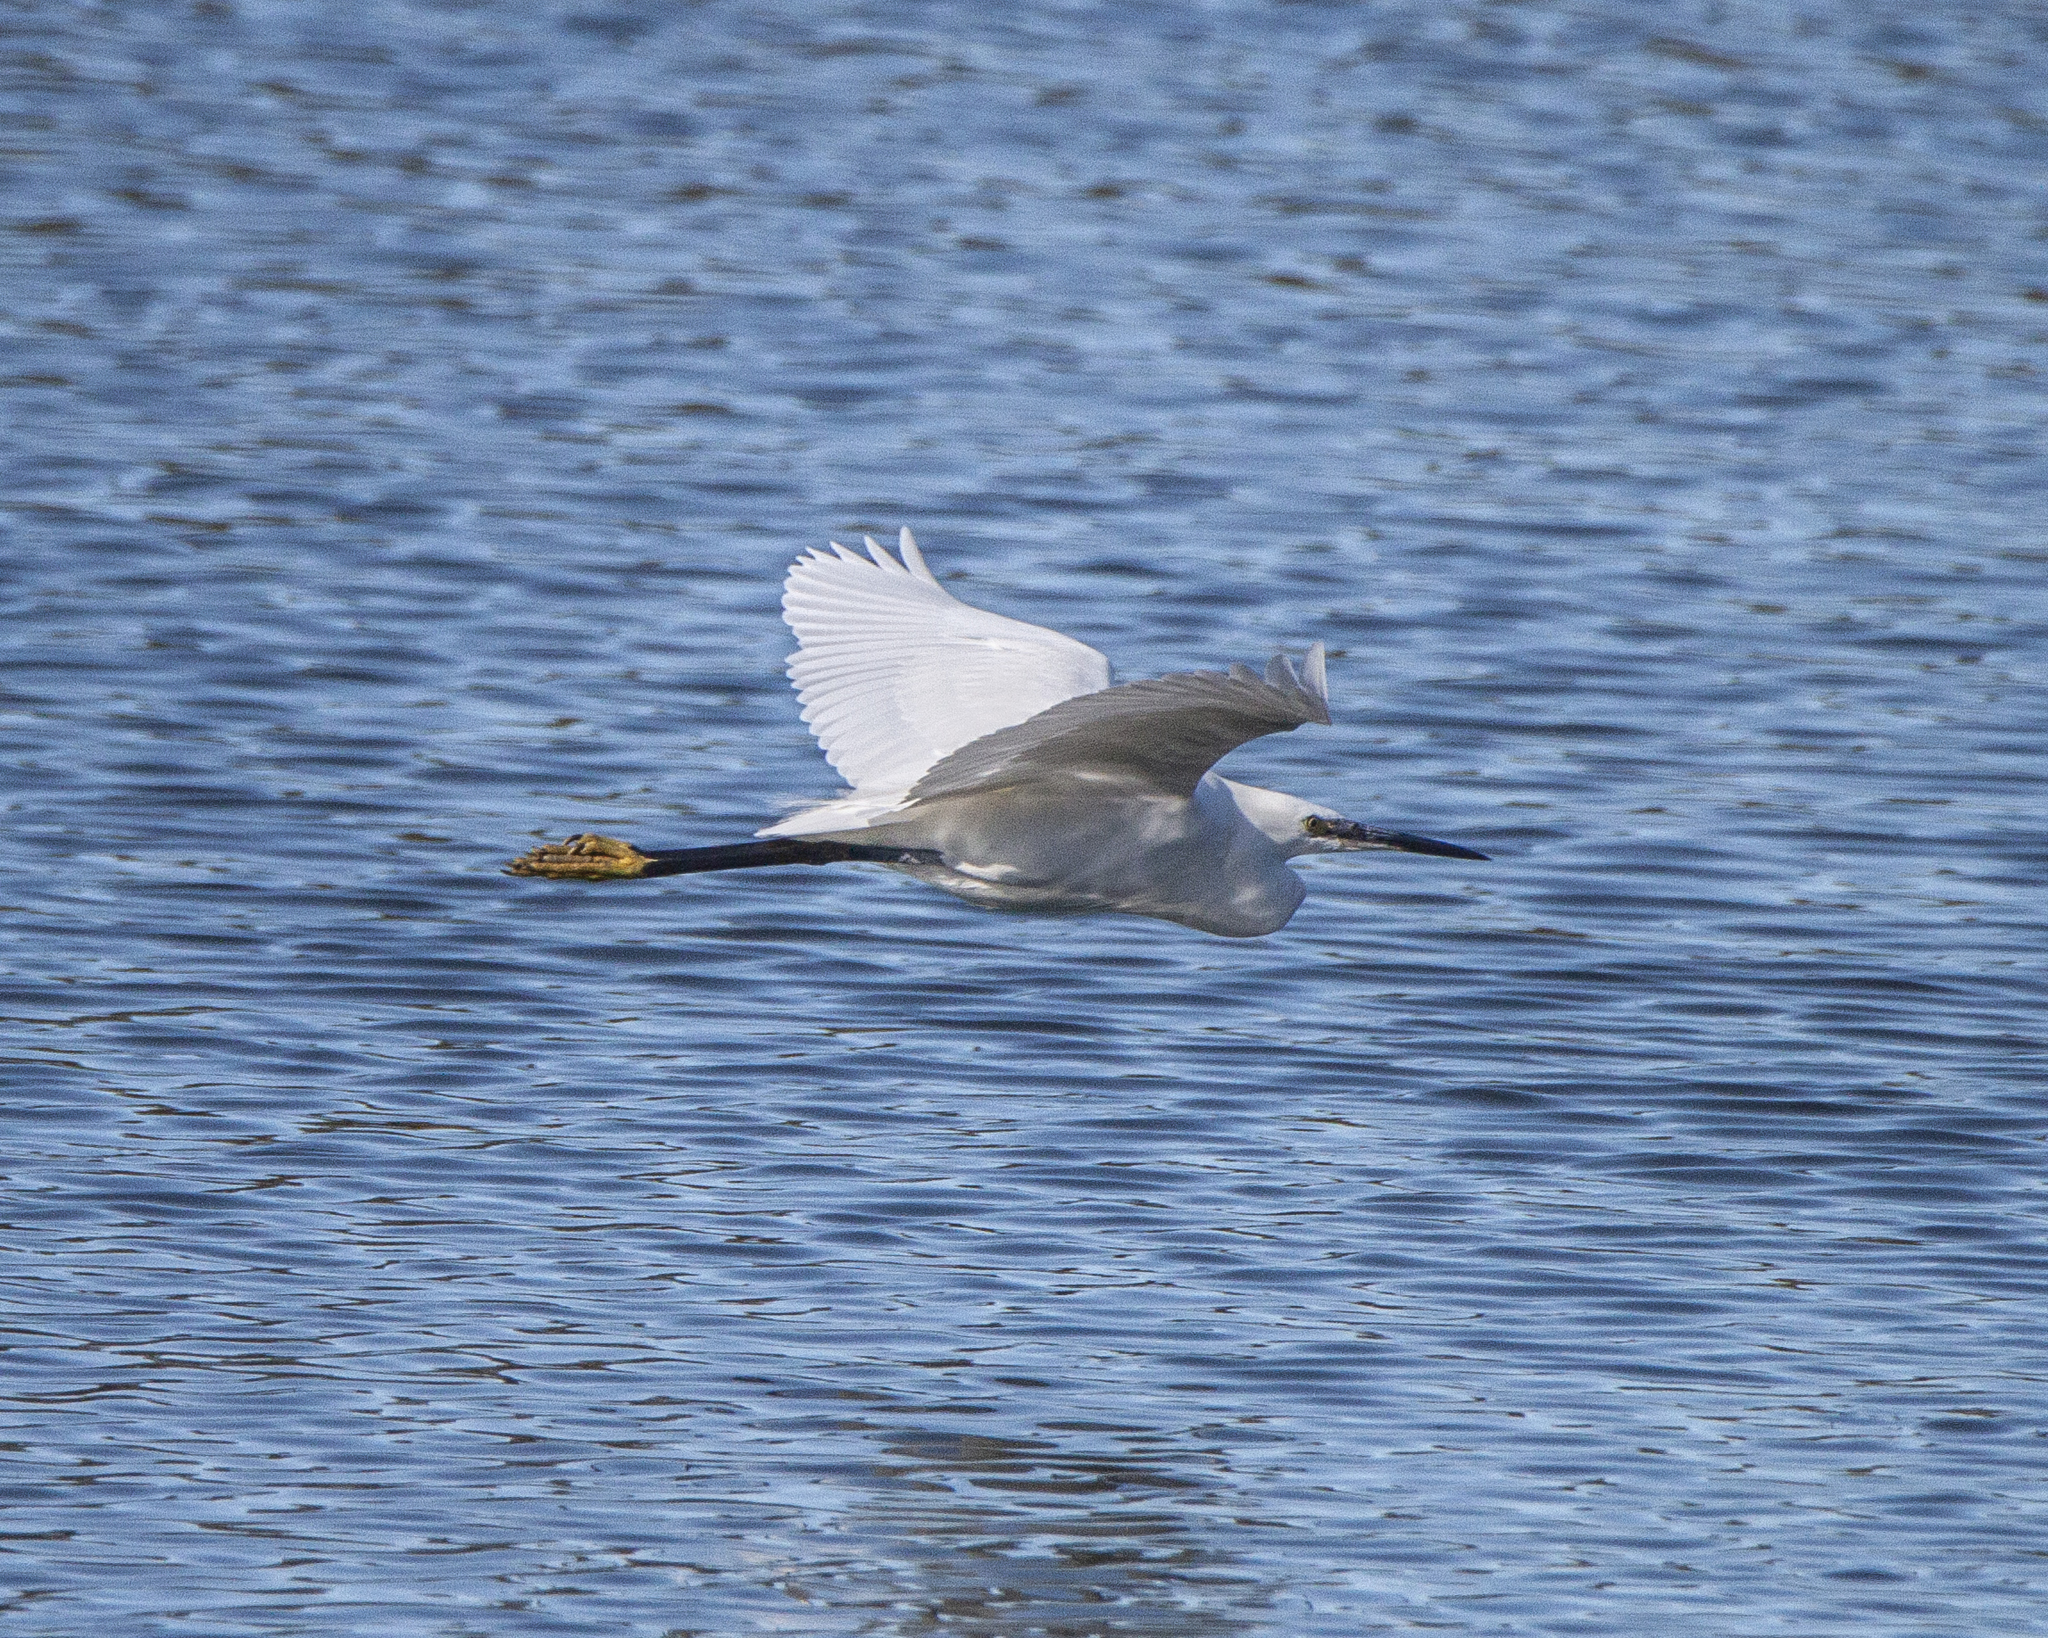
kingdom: Animalia
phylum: Chordata
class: Aves
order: Pelecaniformes
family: Ardeidae
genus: Egretta
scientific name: Egretta garzetta
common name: Little egret
